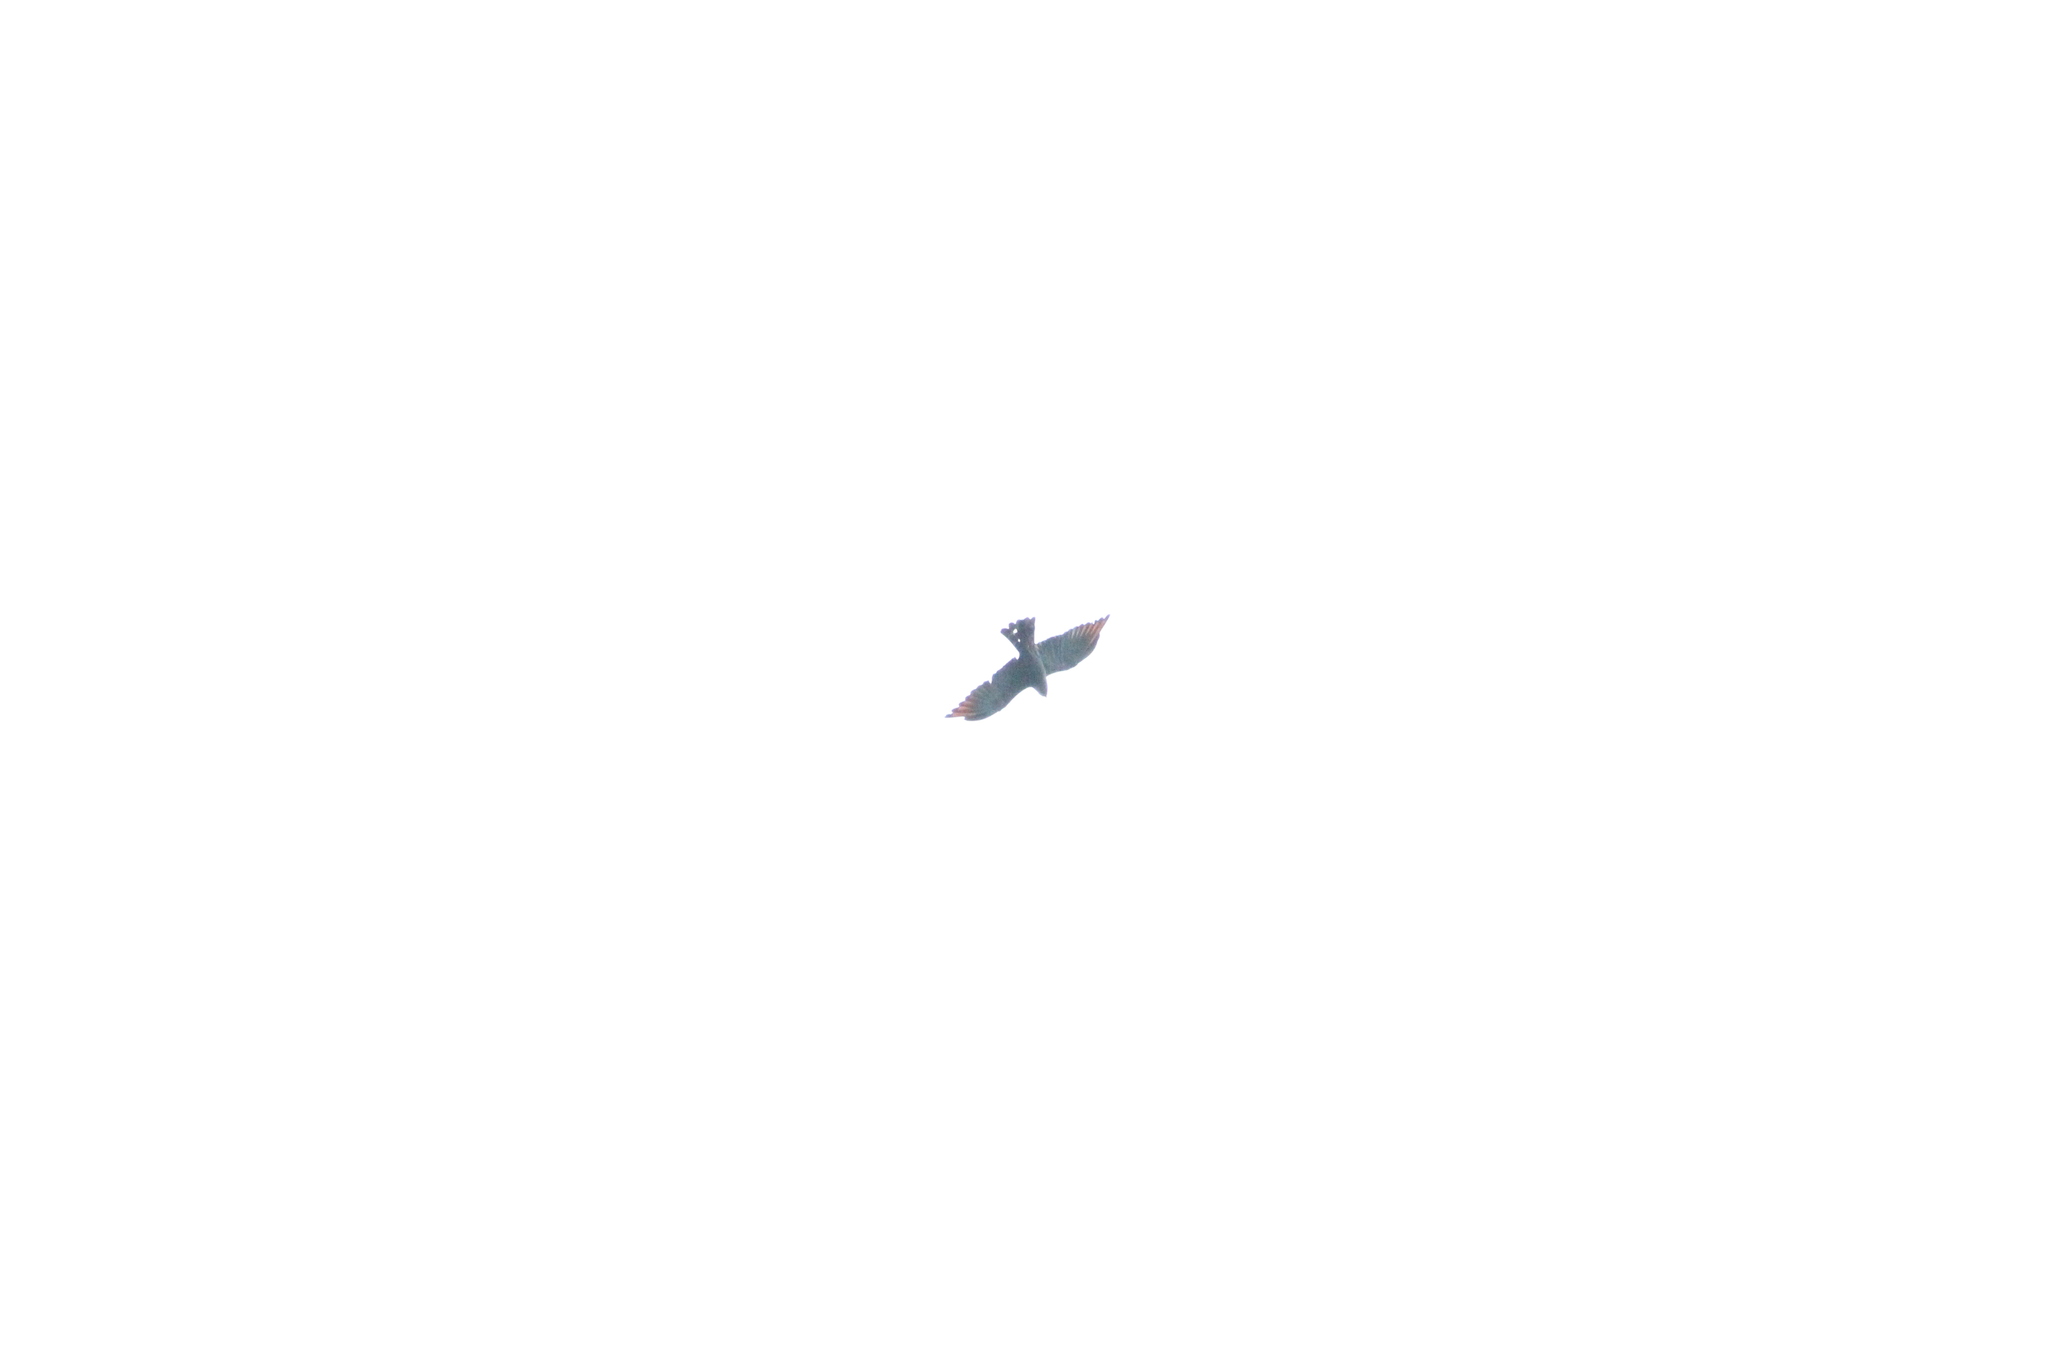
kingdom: Animalia
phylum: Chordata
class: Aves
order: Accipitriformes
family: Accipitridae
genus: Ictinia
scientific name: Ictinia plumbea
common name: Plumbeous kite
